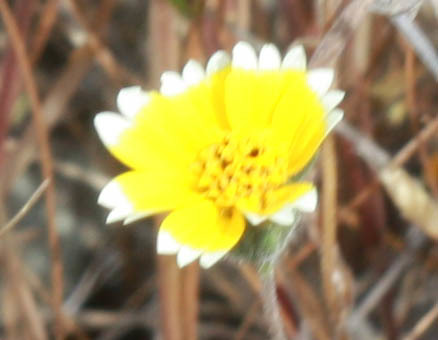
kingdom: Plantae
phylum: Tracheophyta
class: Magnoliopsida
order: Asterales
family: Asteraceae
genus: Layia
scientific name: Layia platyglossa
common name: Tidy-tips
